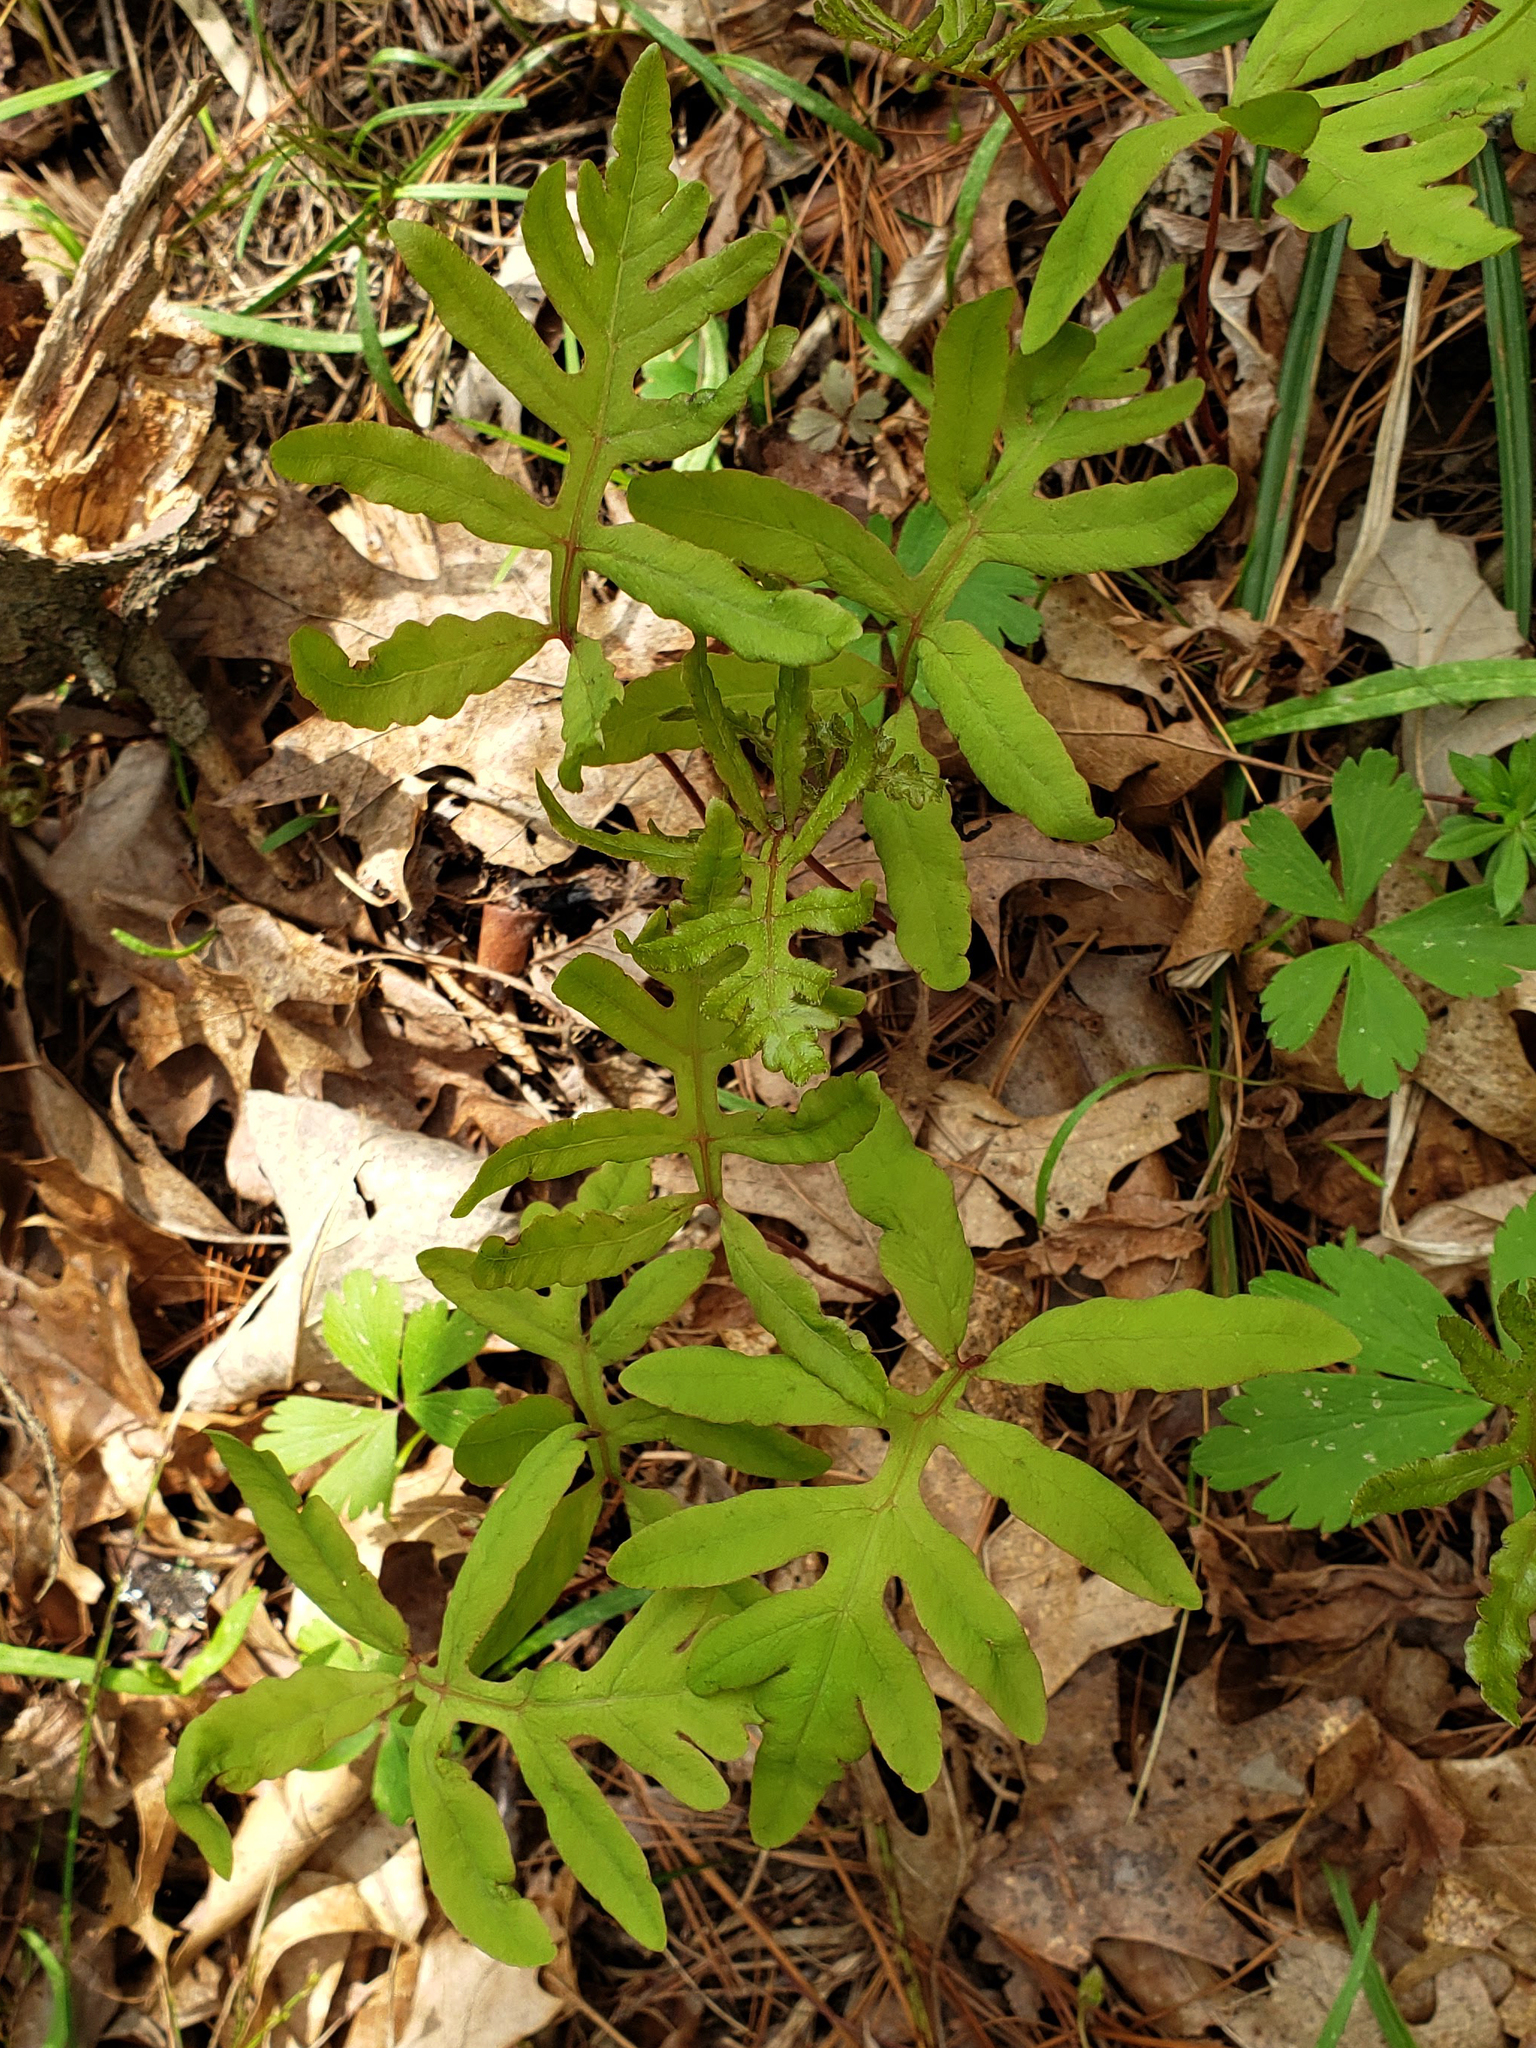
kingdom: Plantae
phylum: Tracheophyta
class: Polypodiopsida
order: Polypodiales
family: Onocleaceae
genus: Onoclea
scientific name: Onoclea sensibilis
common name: Sensitive fern
